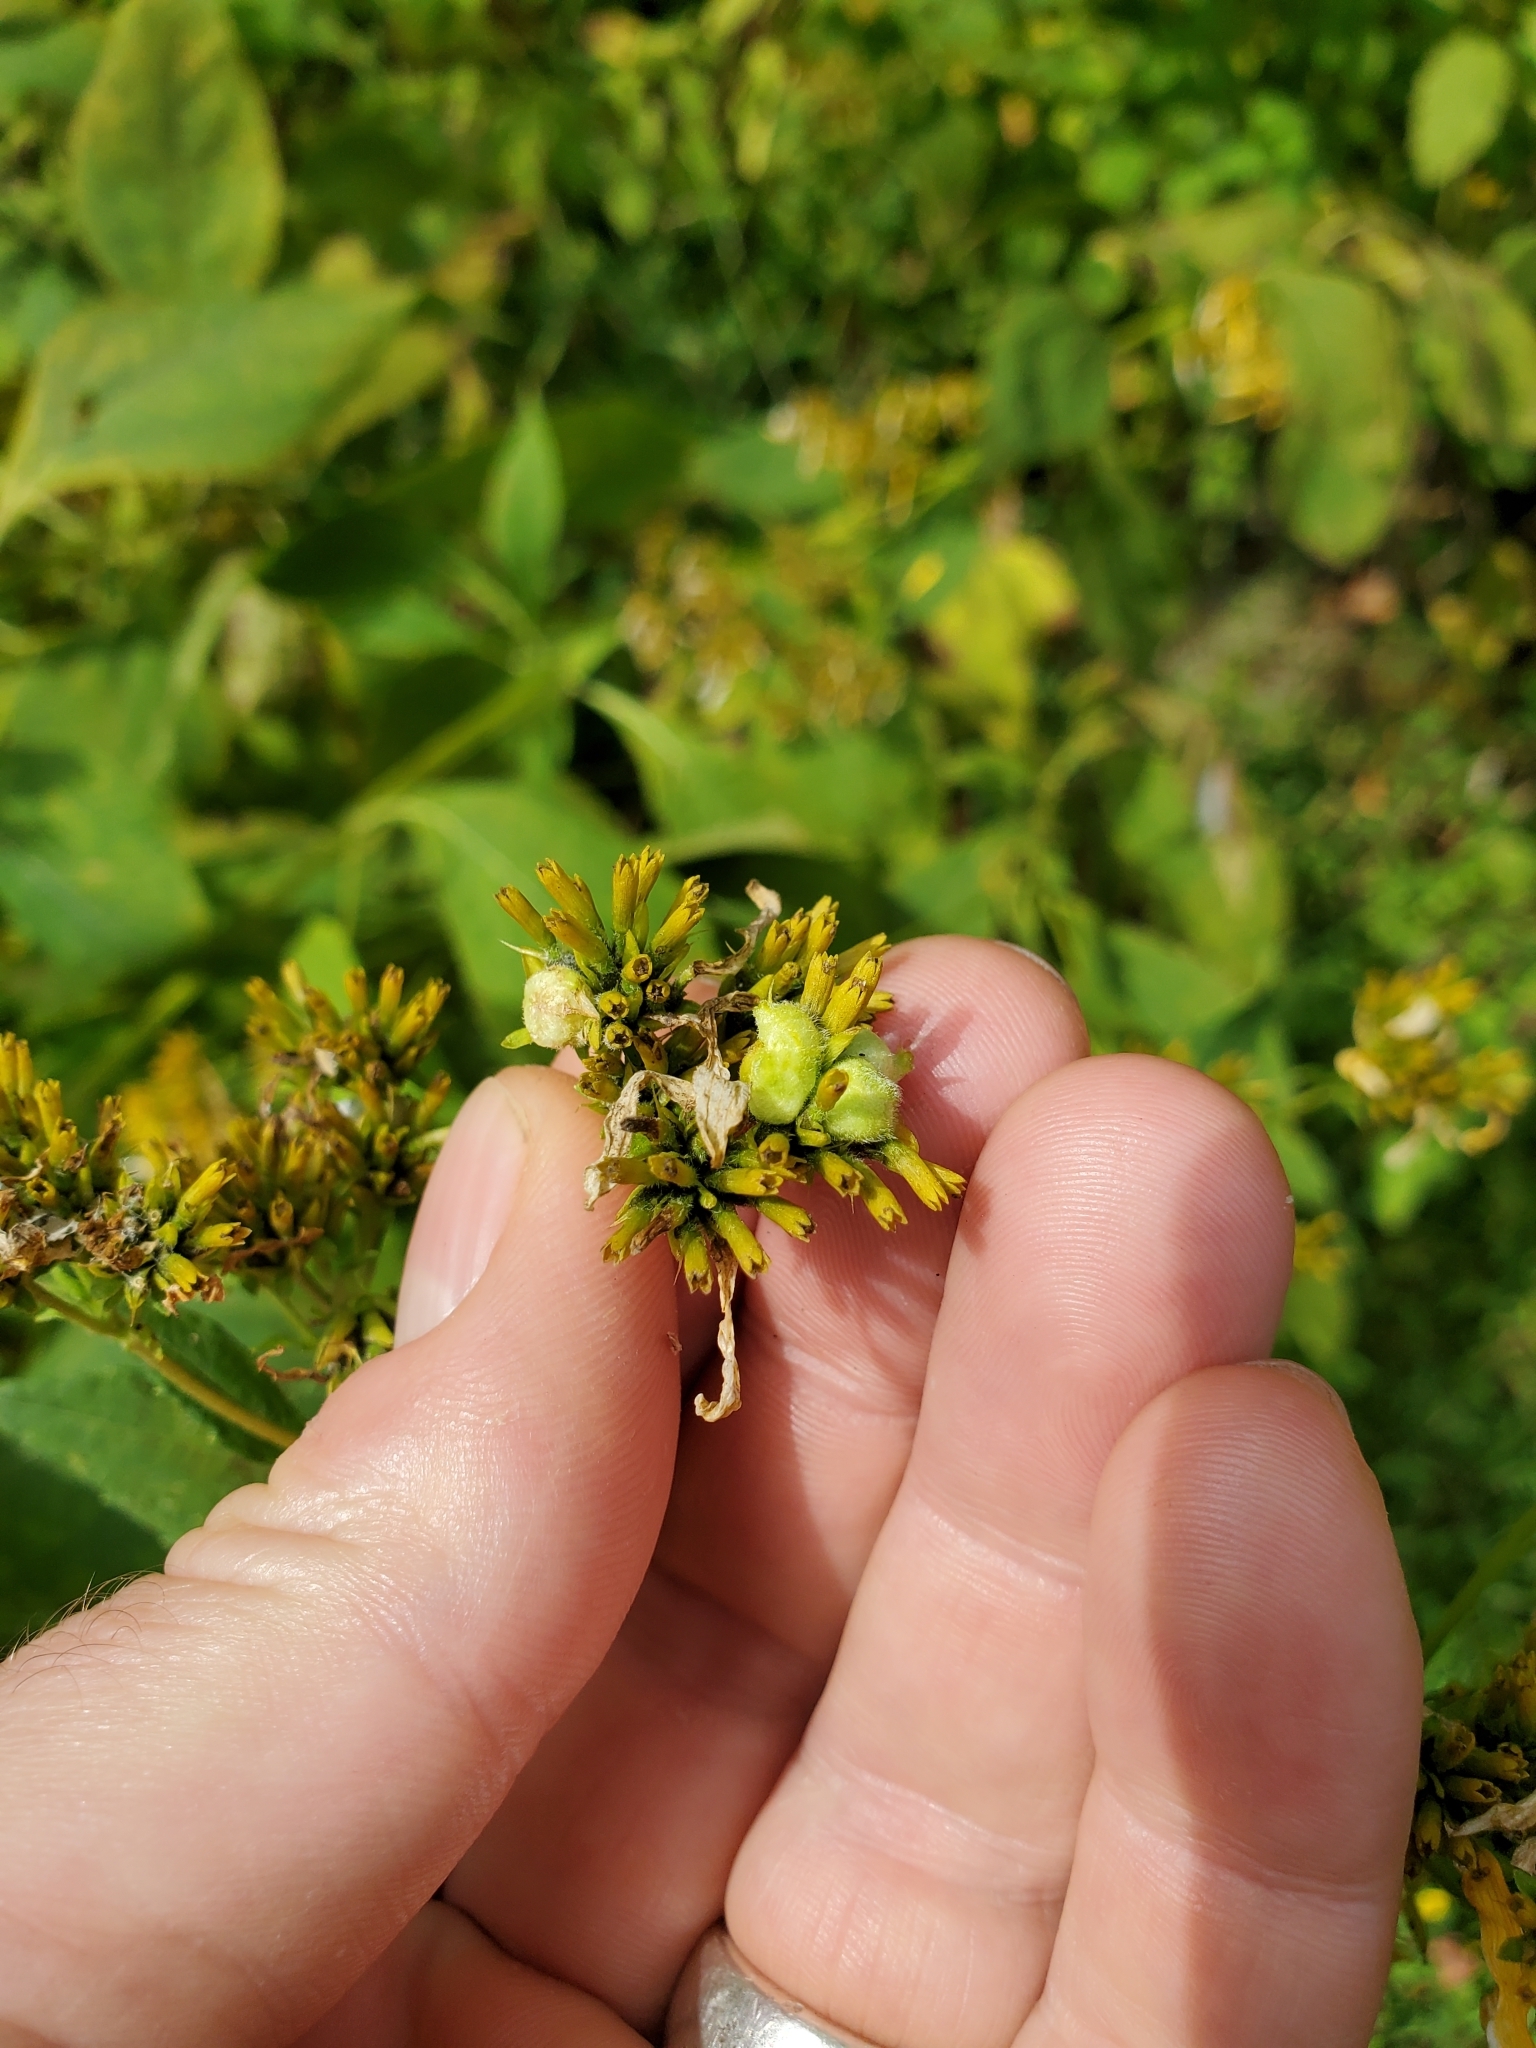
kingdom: Animalia
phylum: Arthropoda
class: Insecta
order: Diptera
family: Cecidomyiidae
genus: Schizomyia
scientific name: Schizomyia
